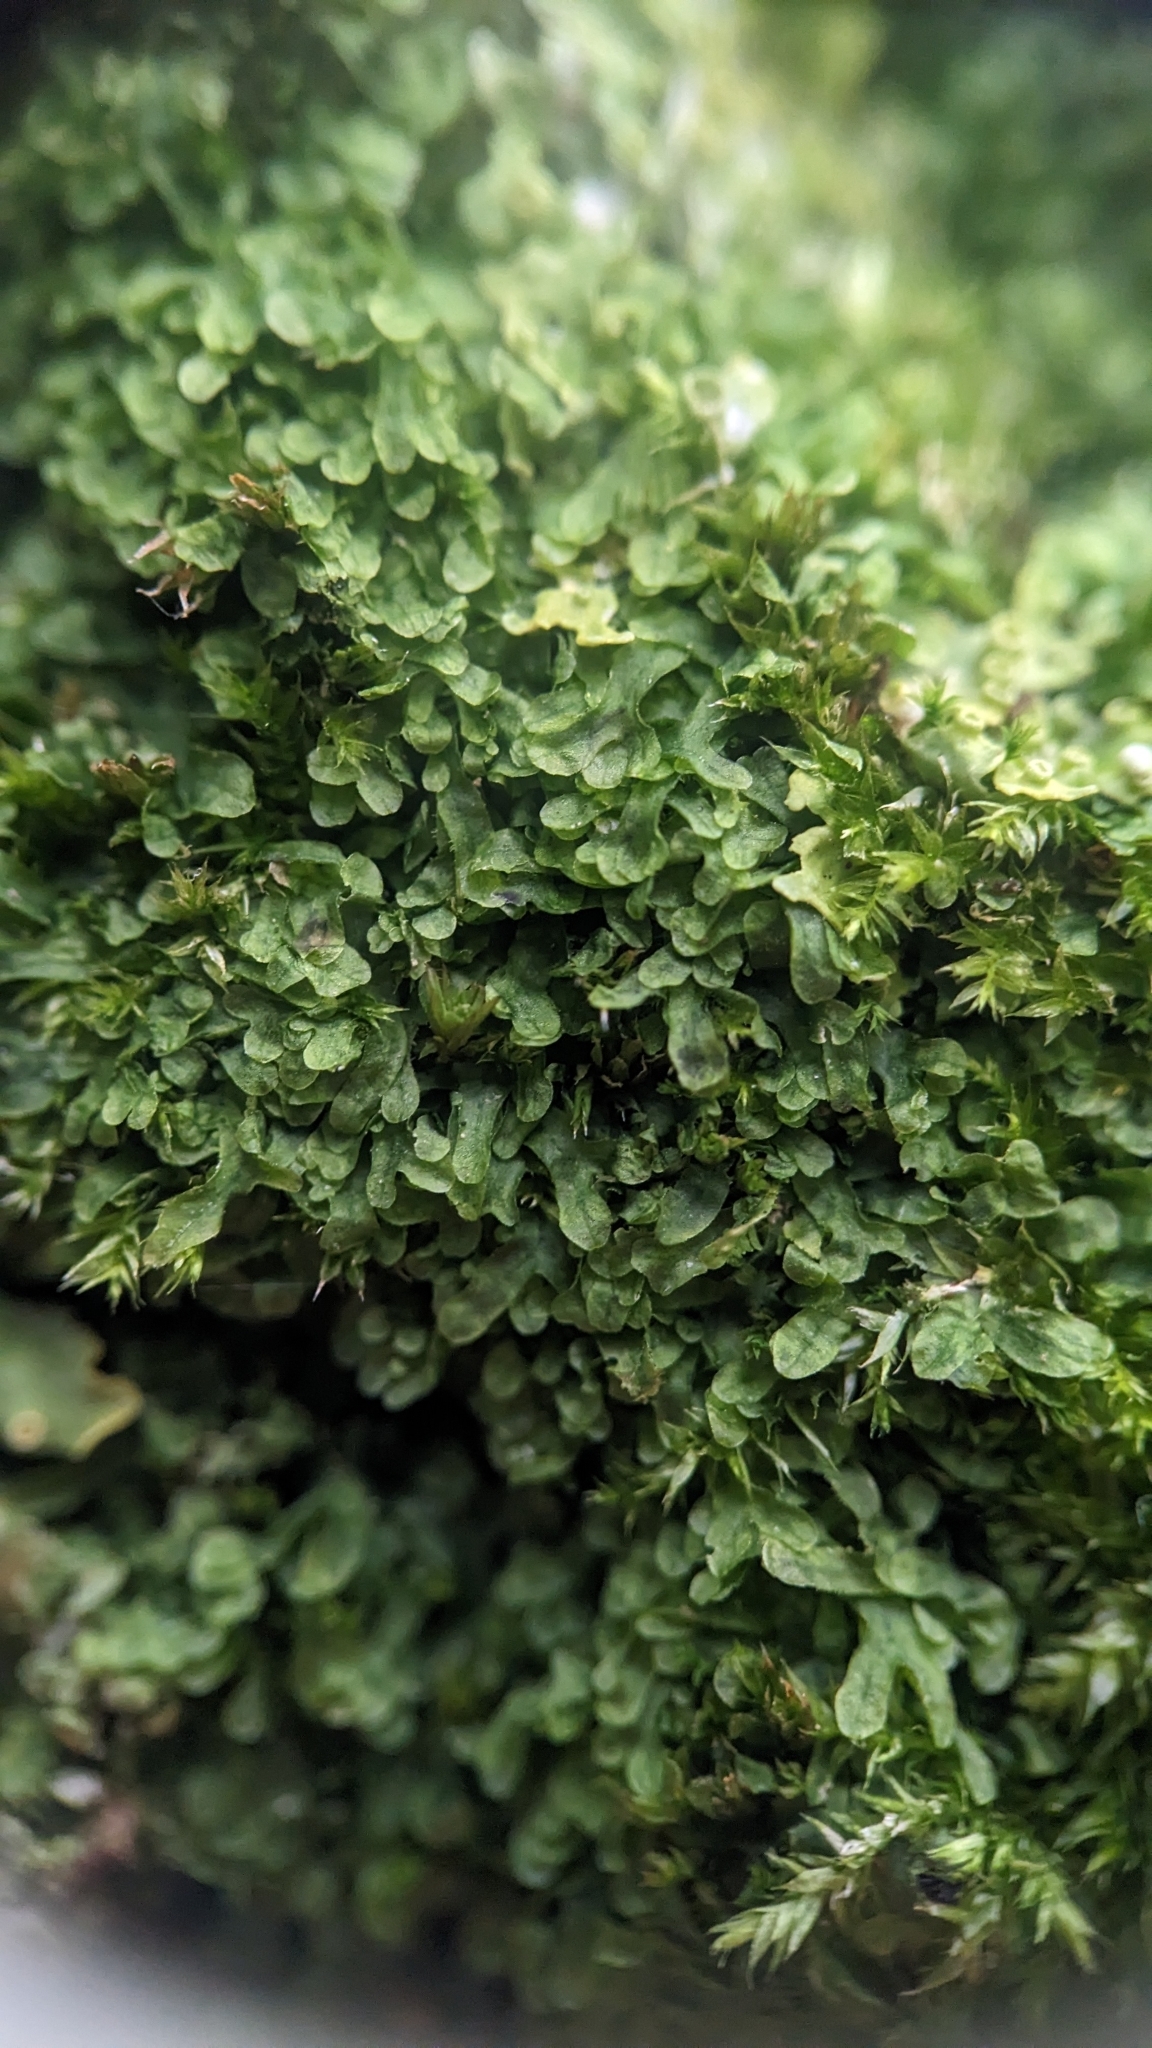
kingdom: Plantae
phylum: Marchantiophyta
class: Jungermanniopsida
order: Metzgeriales
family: Metzgeriaceae
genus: Metzgeria
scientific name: Metzgeria furcata
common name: Forked veilwort
